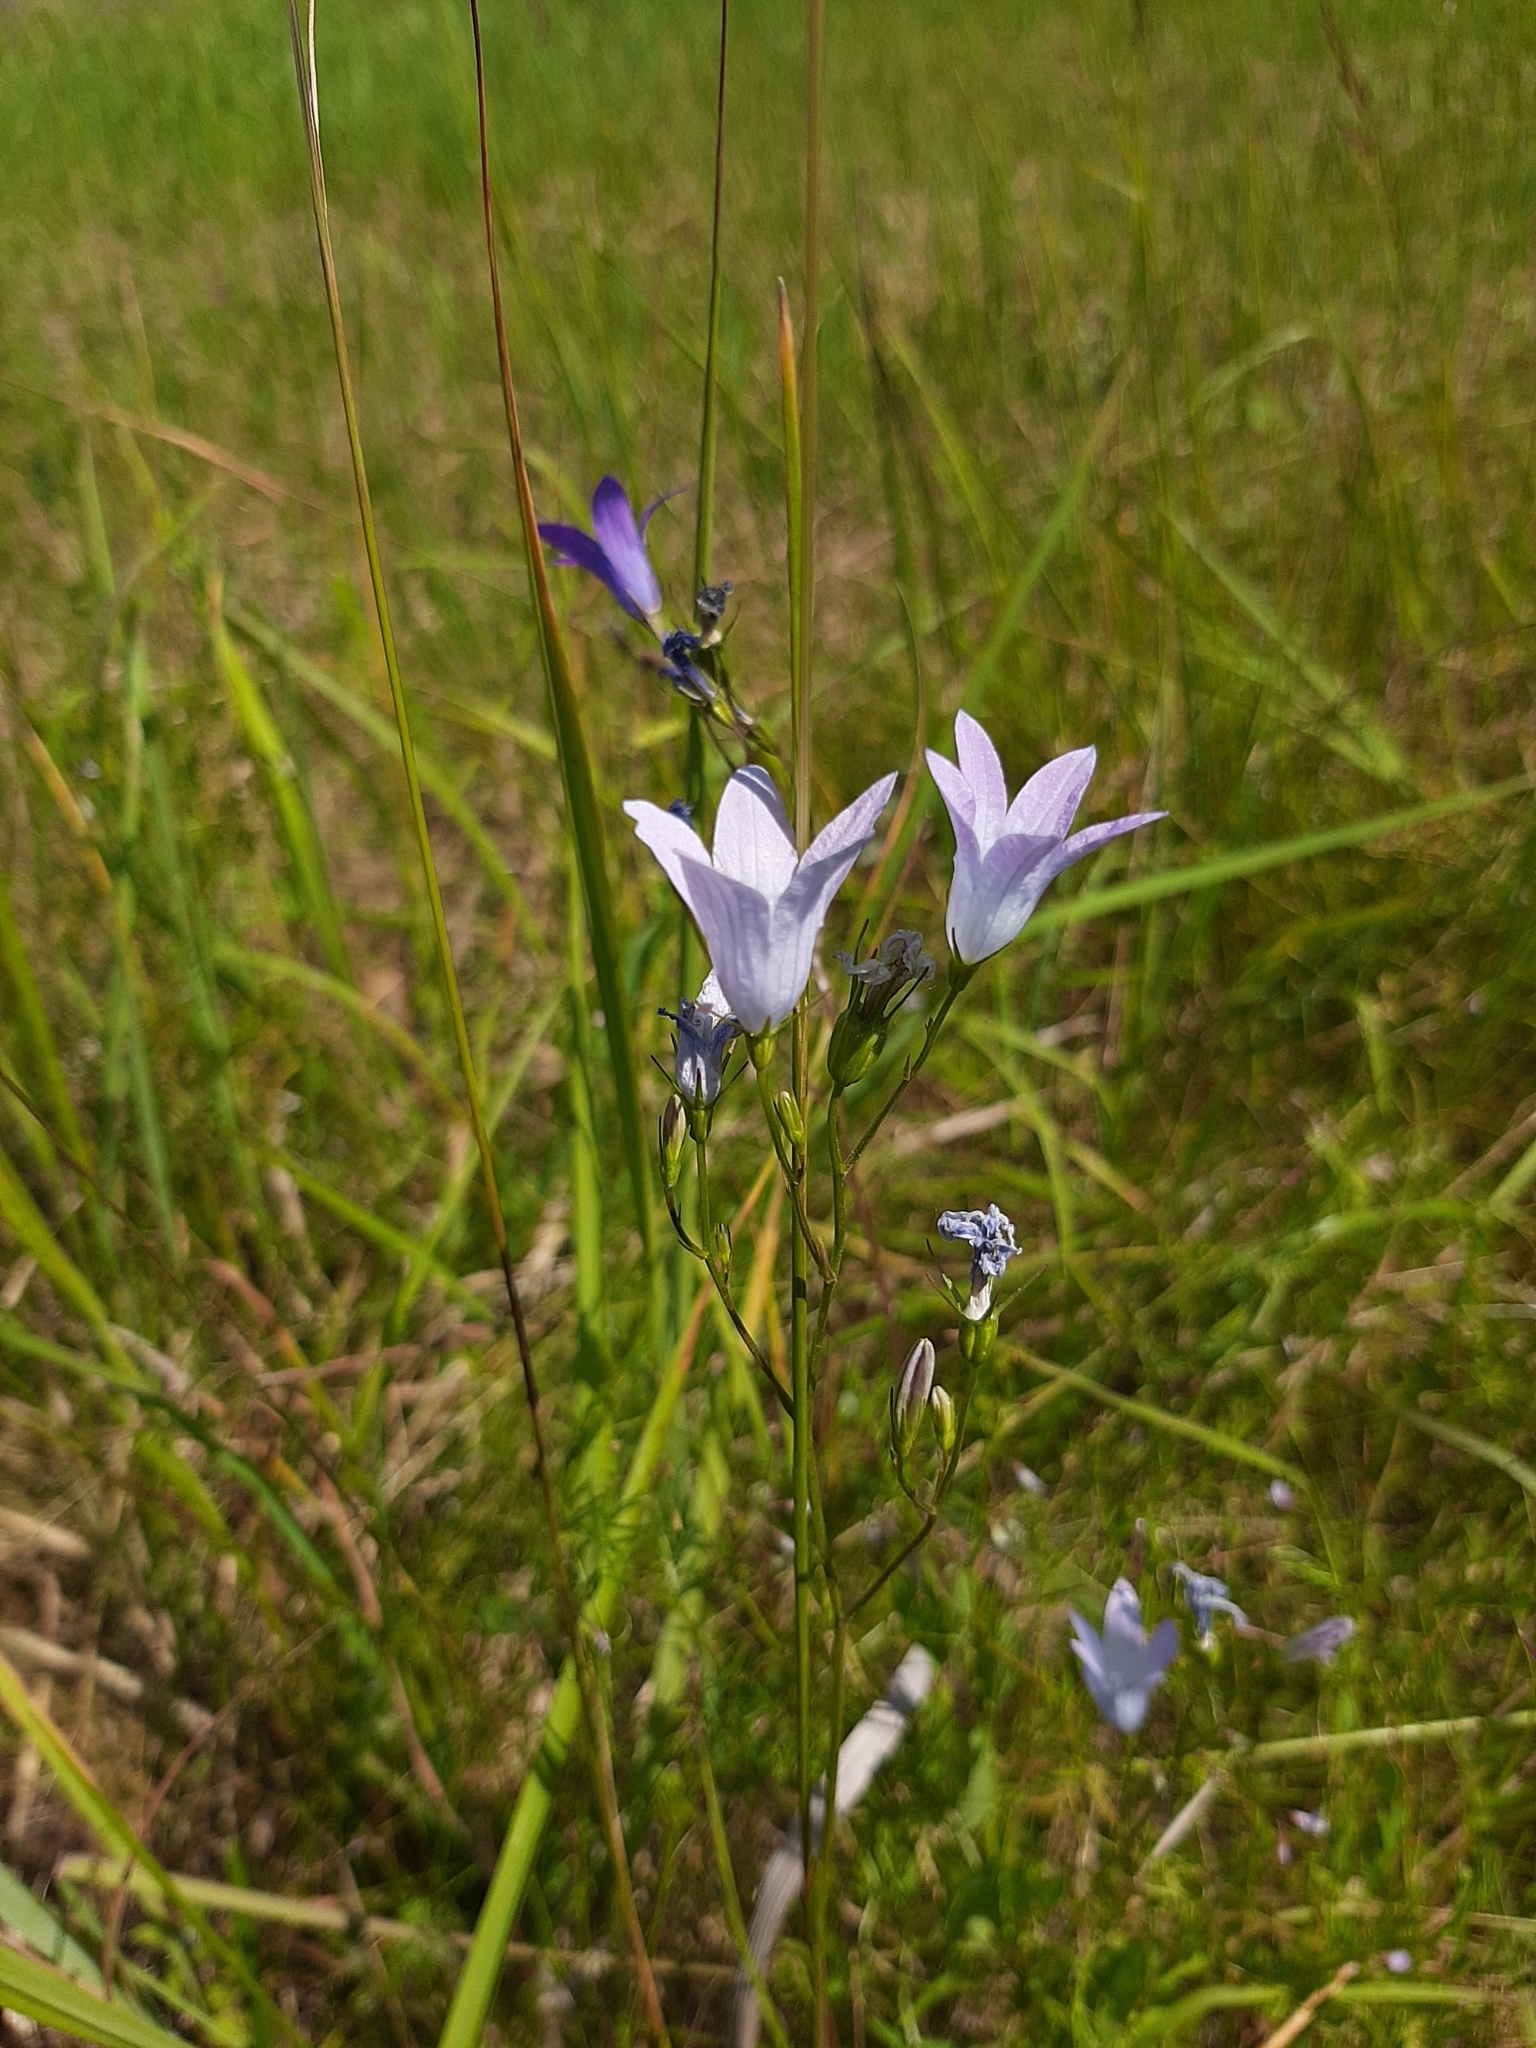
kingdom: Plantae
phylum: Tracheophyta
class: Magnoliopsida
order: Asterales
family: Campanulaceae
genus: Campanula
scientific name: Campanula patula
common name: Spreading bellflower
